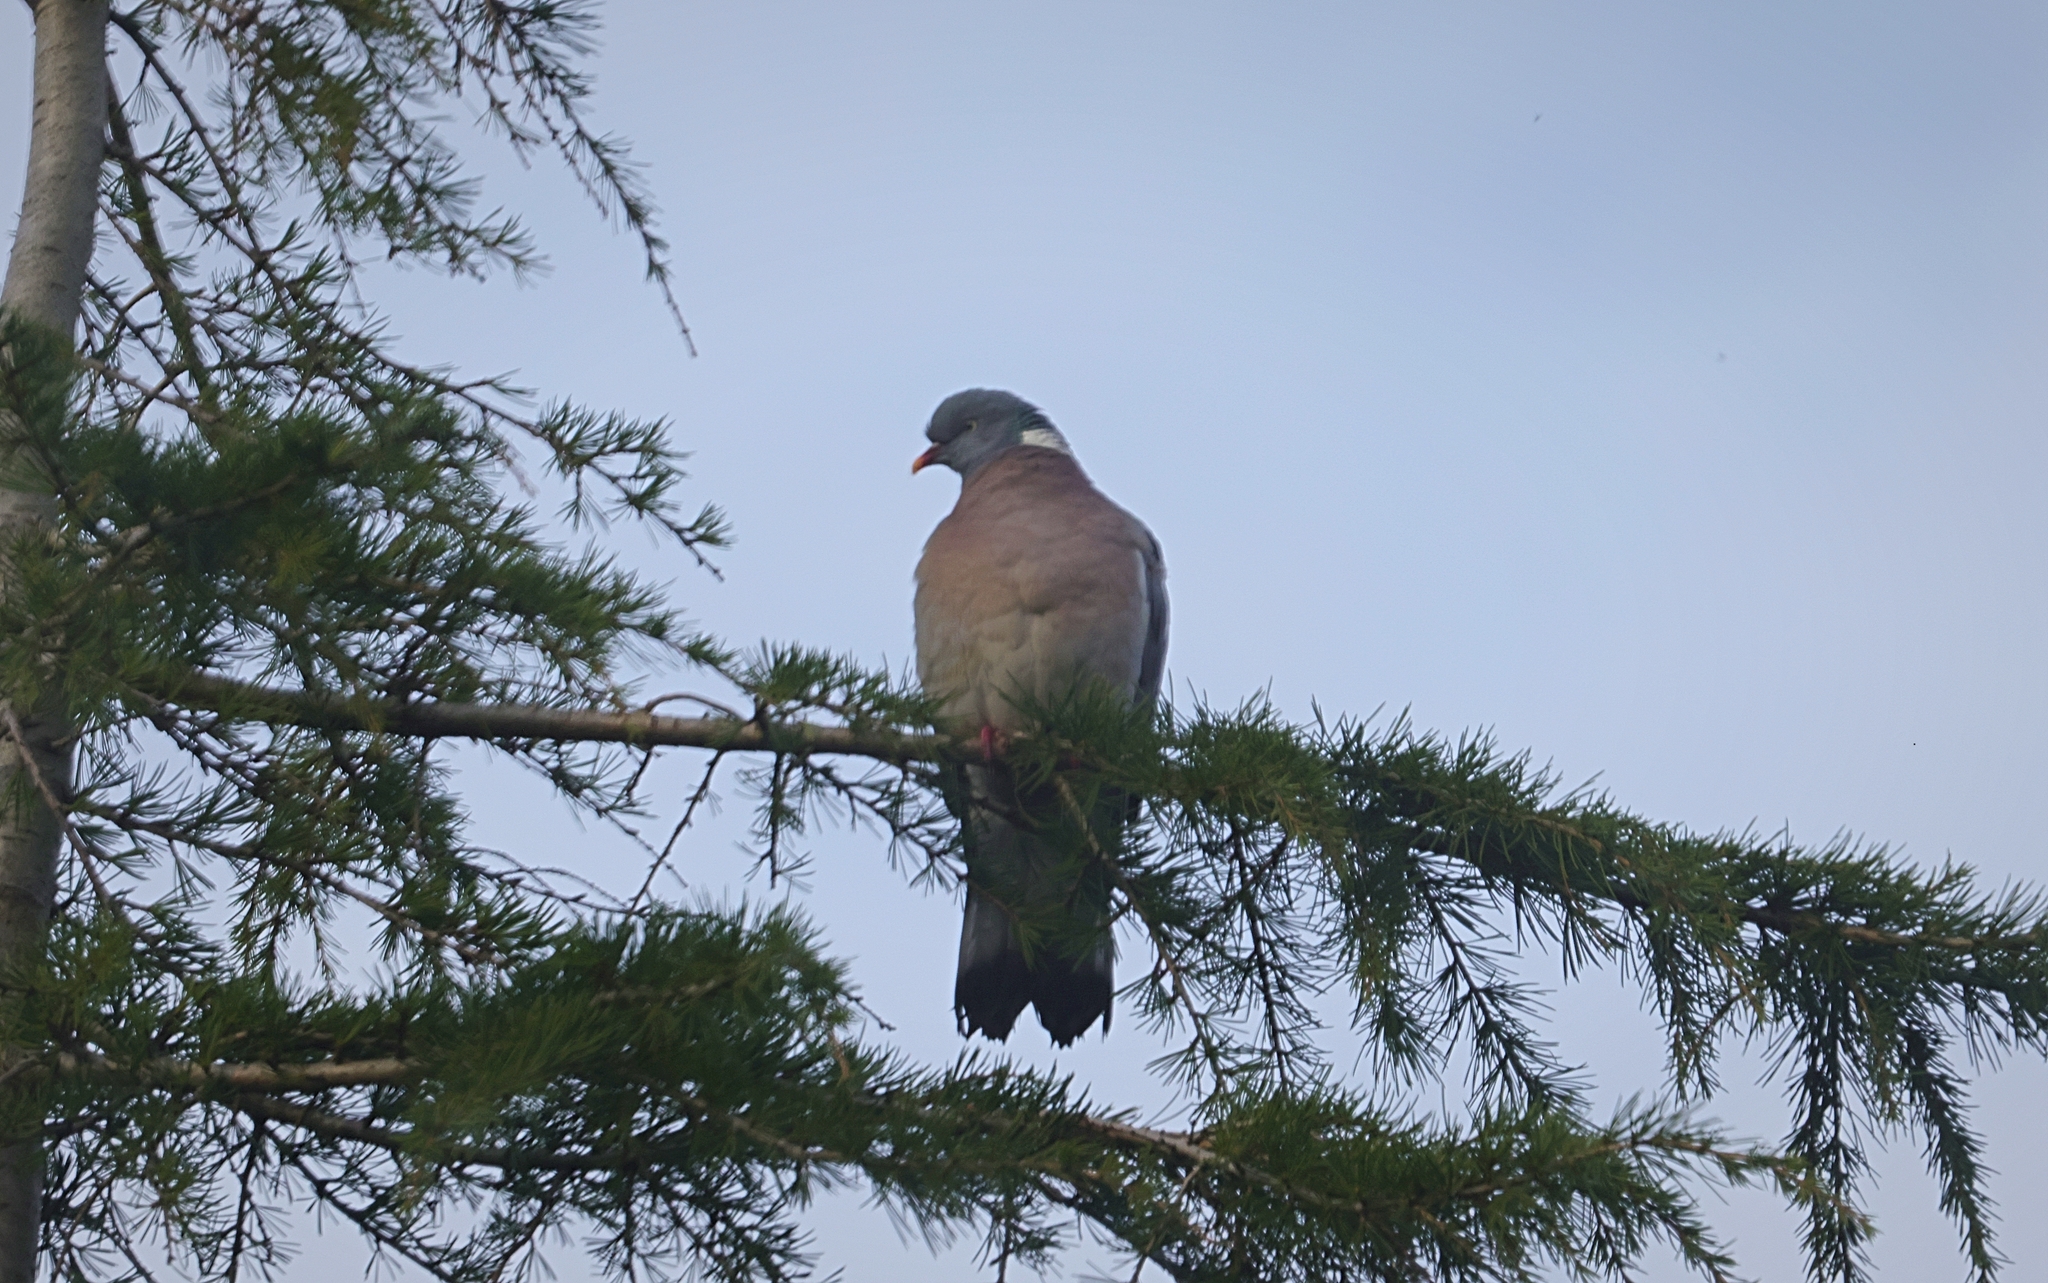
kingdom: Animalia
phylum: Chordata
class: Aves
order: Columbiformes
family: Columbidae
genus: Columba
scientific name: Columba palumbus
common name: Common wood pigeon
